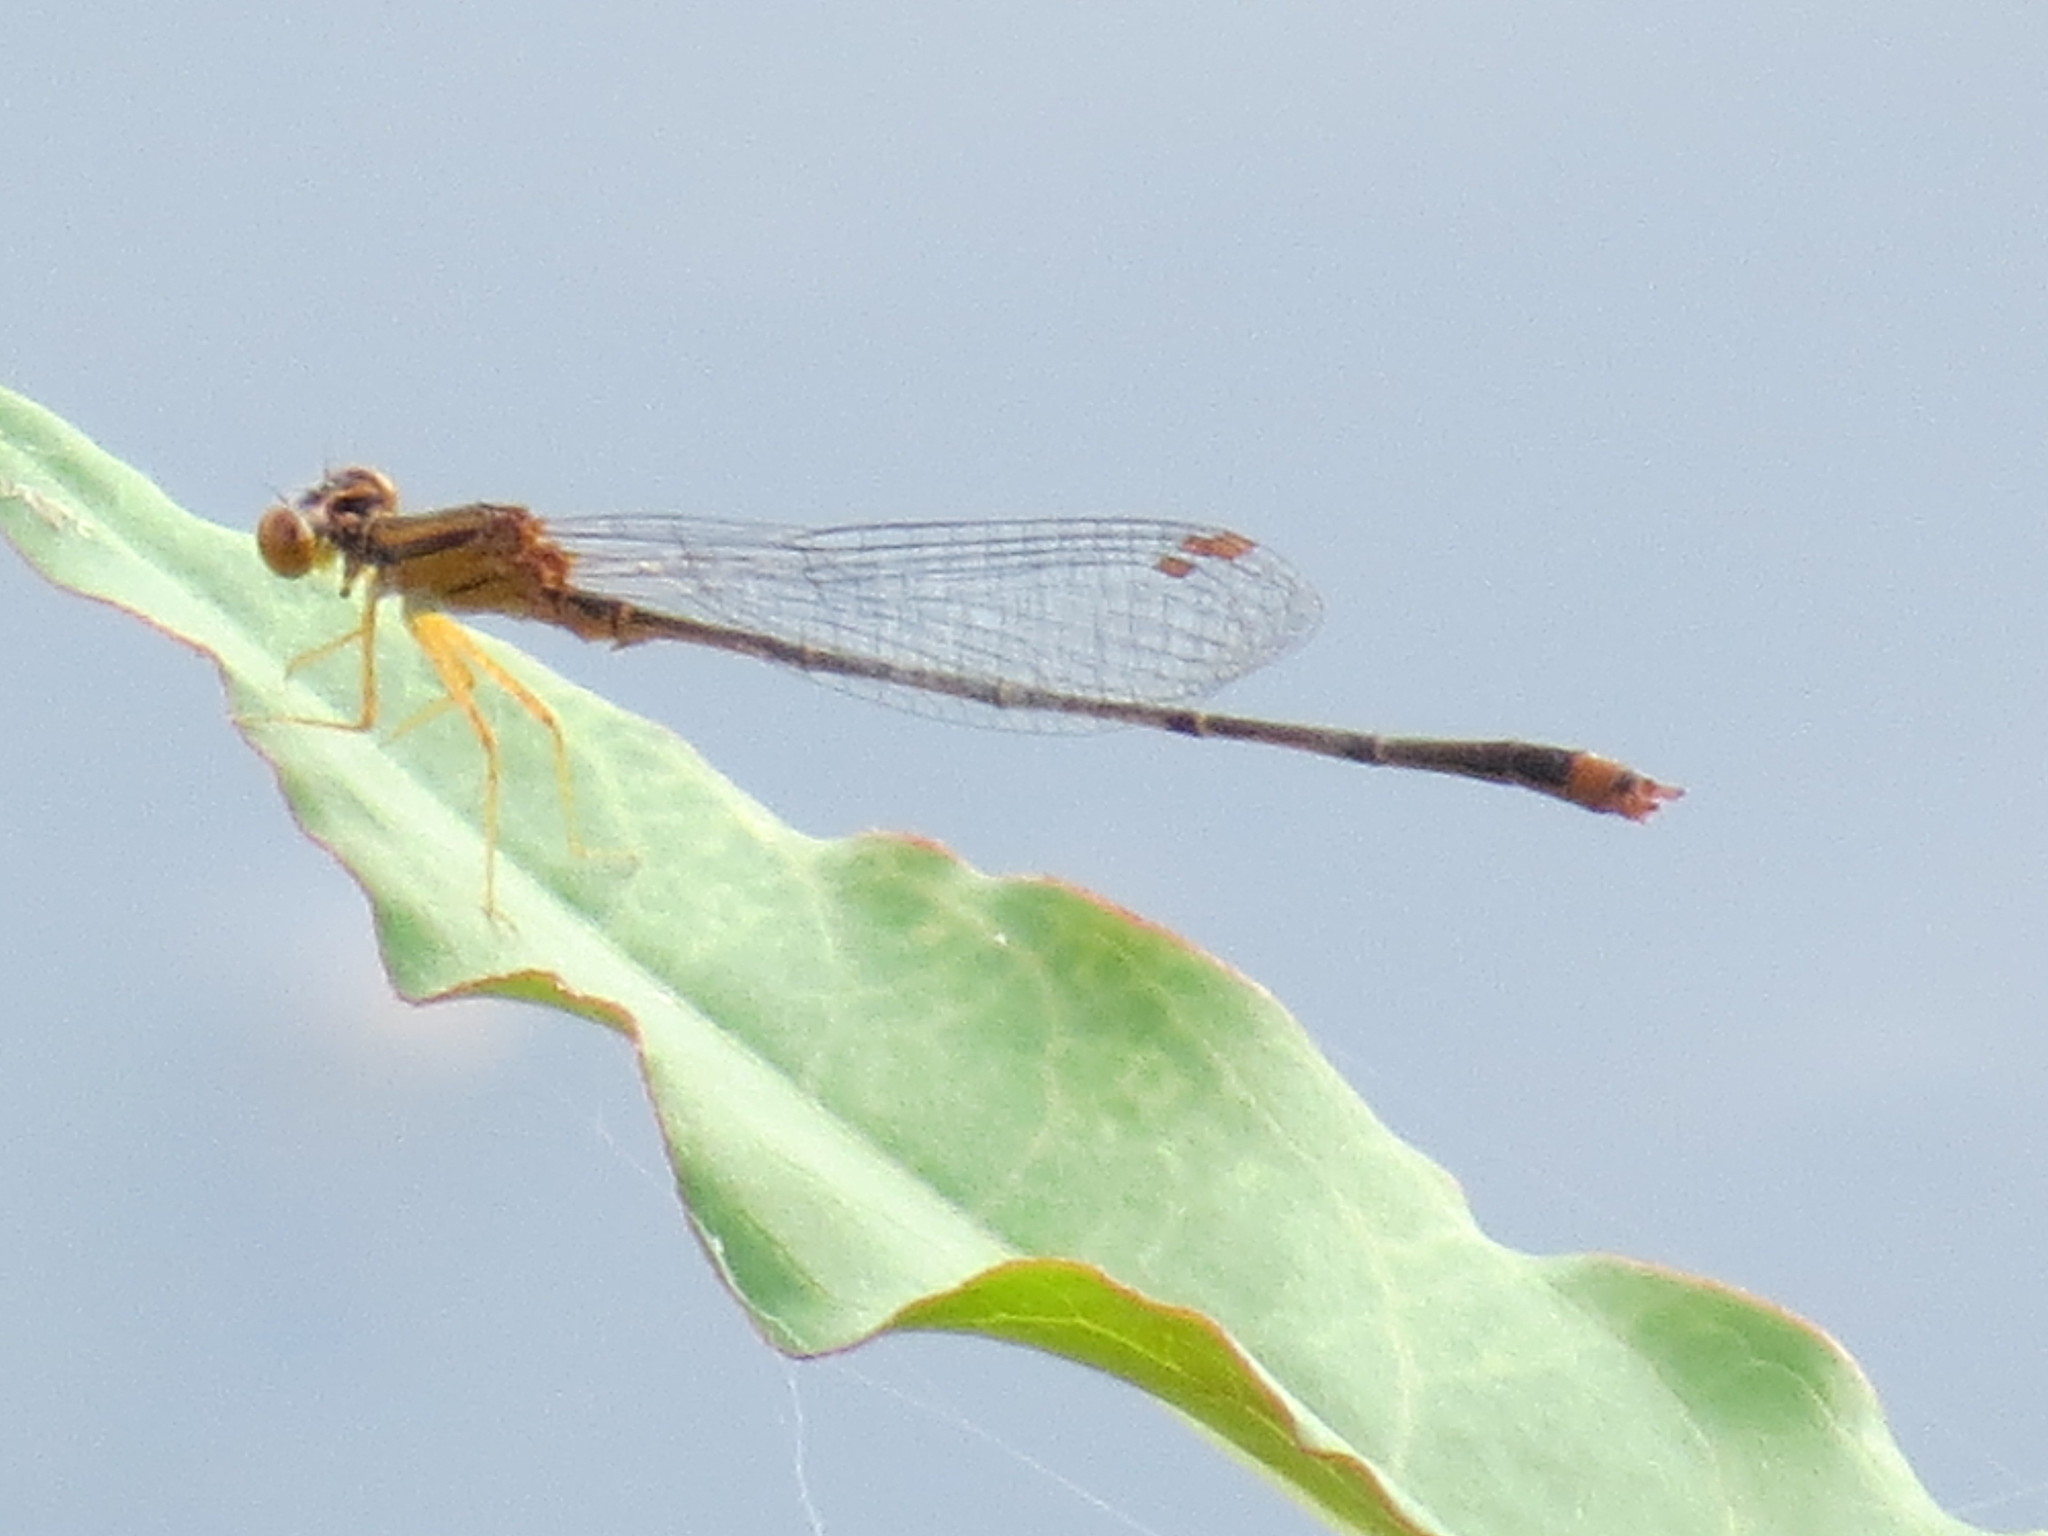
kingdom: Animalia
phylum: Arthropoda
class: Insecta
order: Odonata
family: Coenagrionidae
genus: Enallagma
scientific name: Enallagma signatum
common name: Orange bluet
